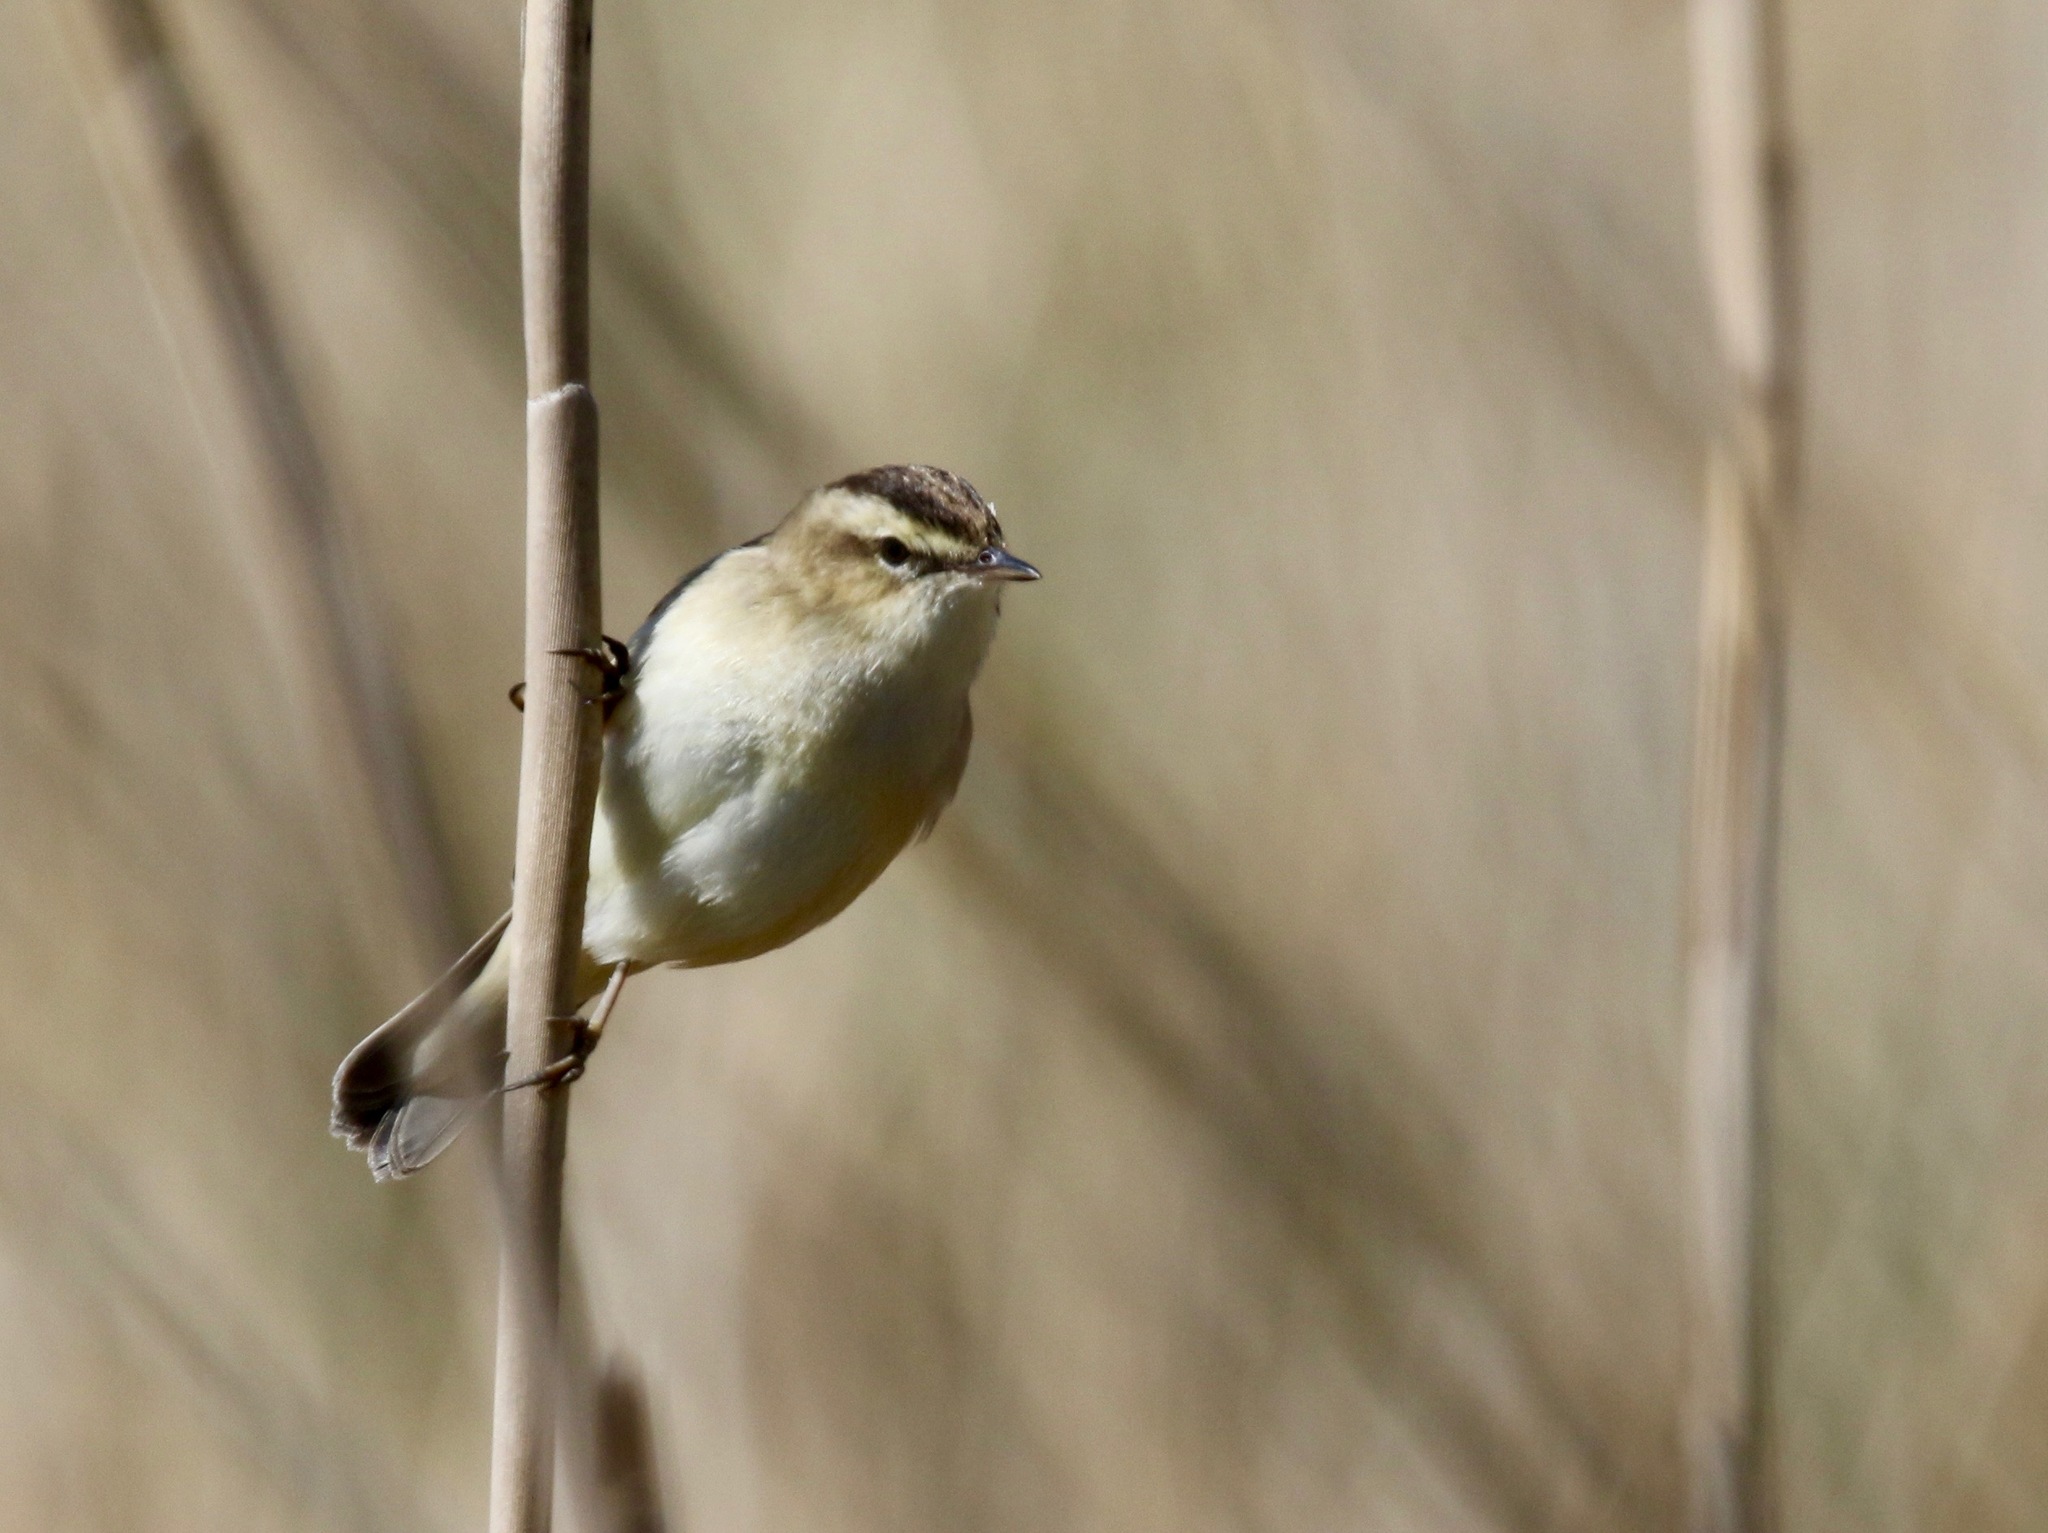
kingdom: Animalia
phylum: Chordata
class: Aves
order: Passeriformes
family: Acrocephalidae
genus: Acrocephalus
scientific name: Acrocephalus schoenobaenus
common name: Sedge warbler
